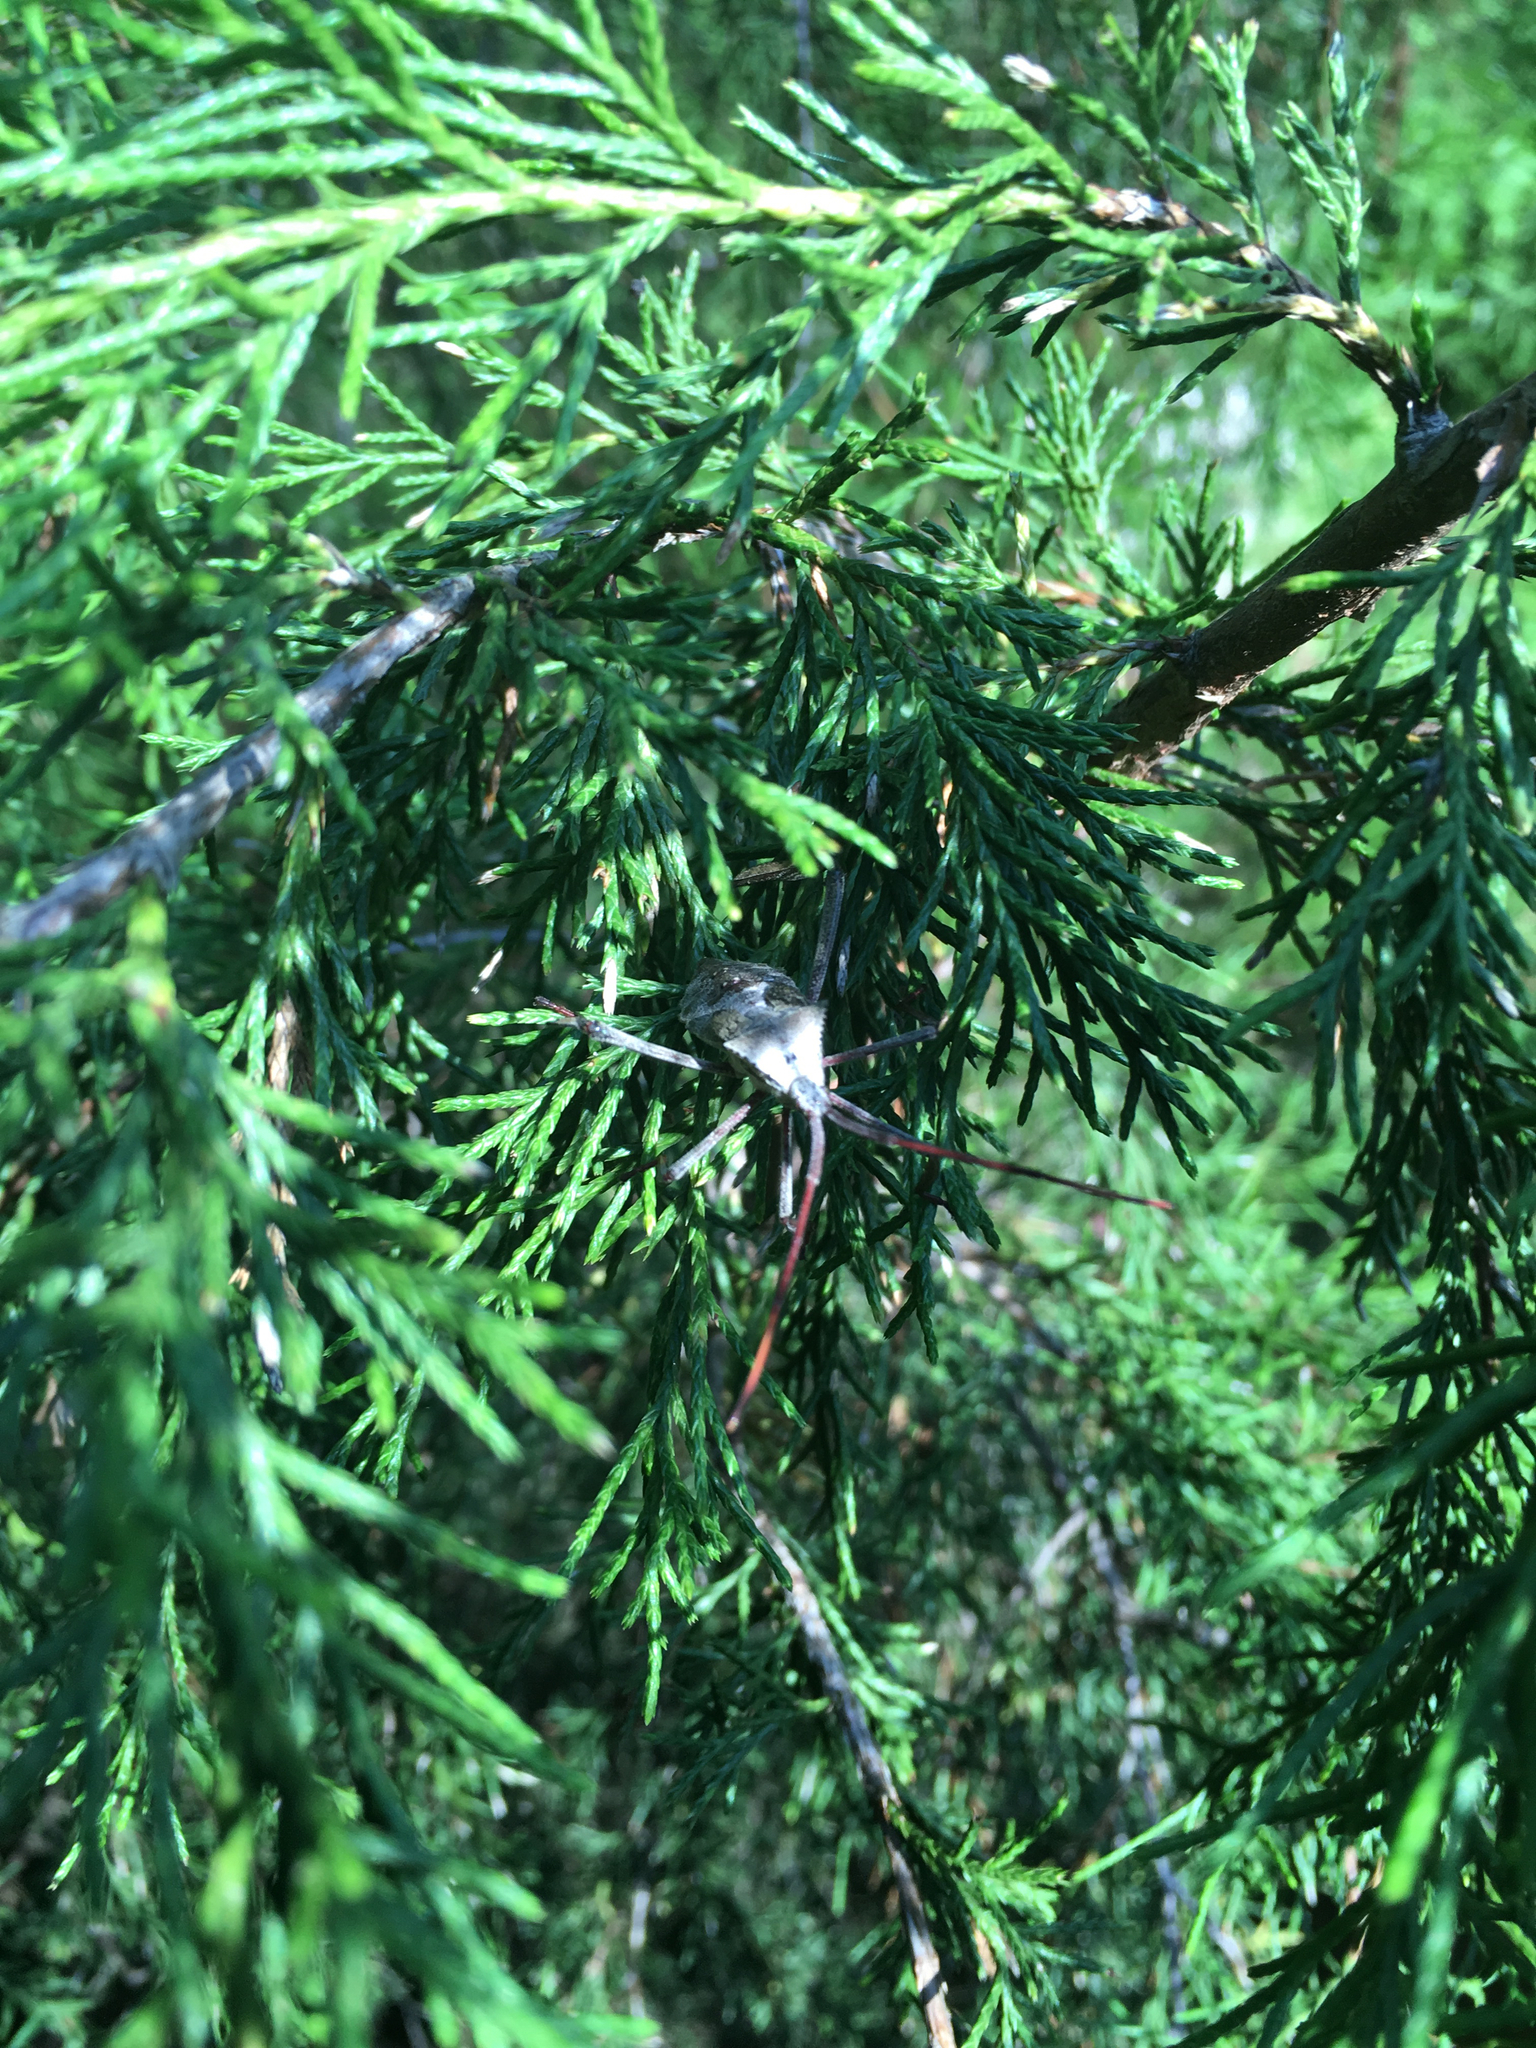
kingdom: Animalia
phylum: Arthropoda
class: Insecta
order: Hemiptera
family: Coreidae
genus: Acanthocephala
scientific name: Acanthocephala declivis
